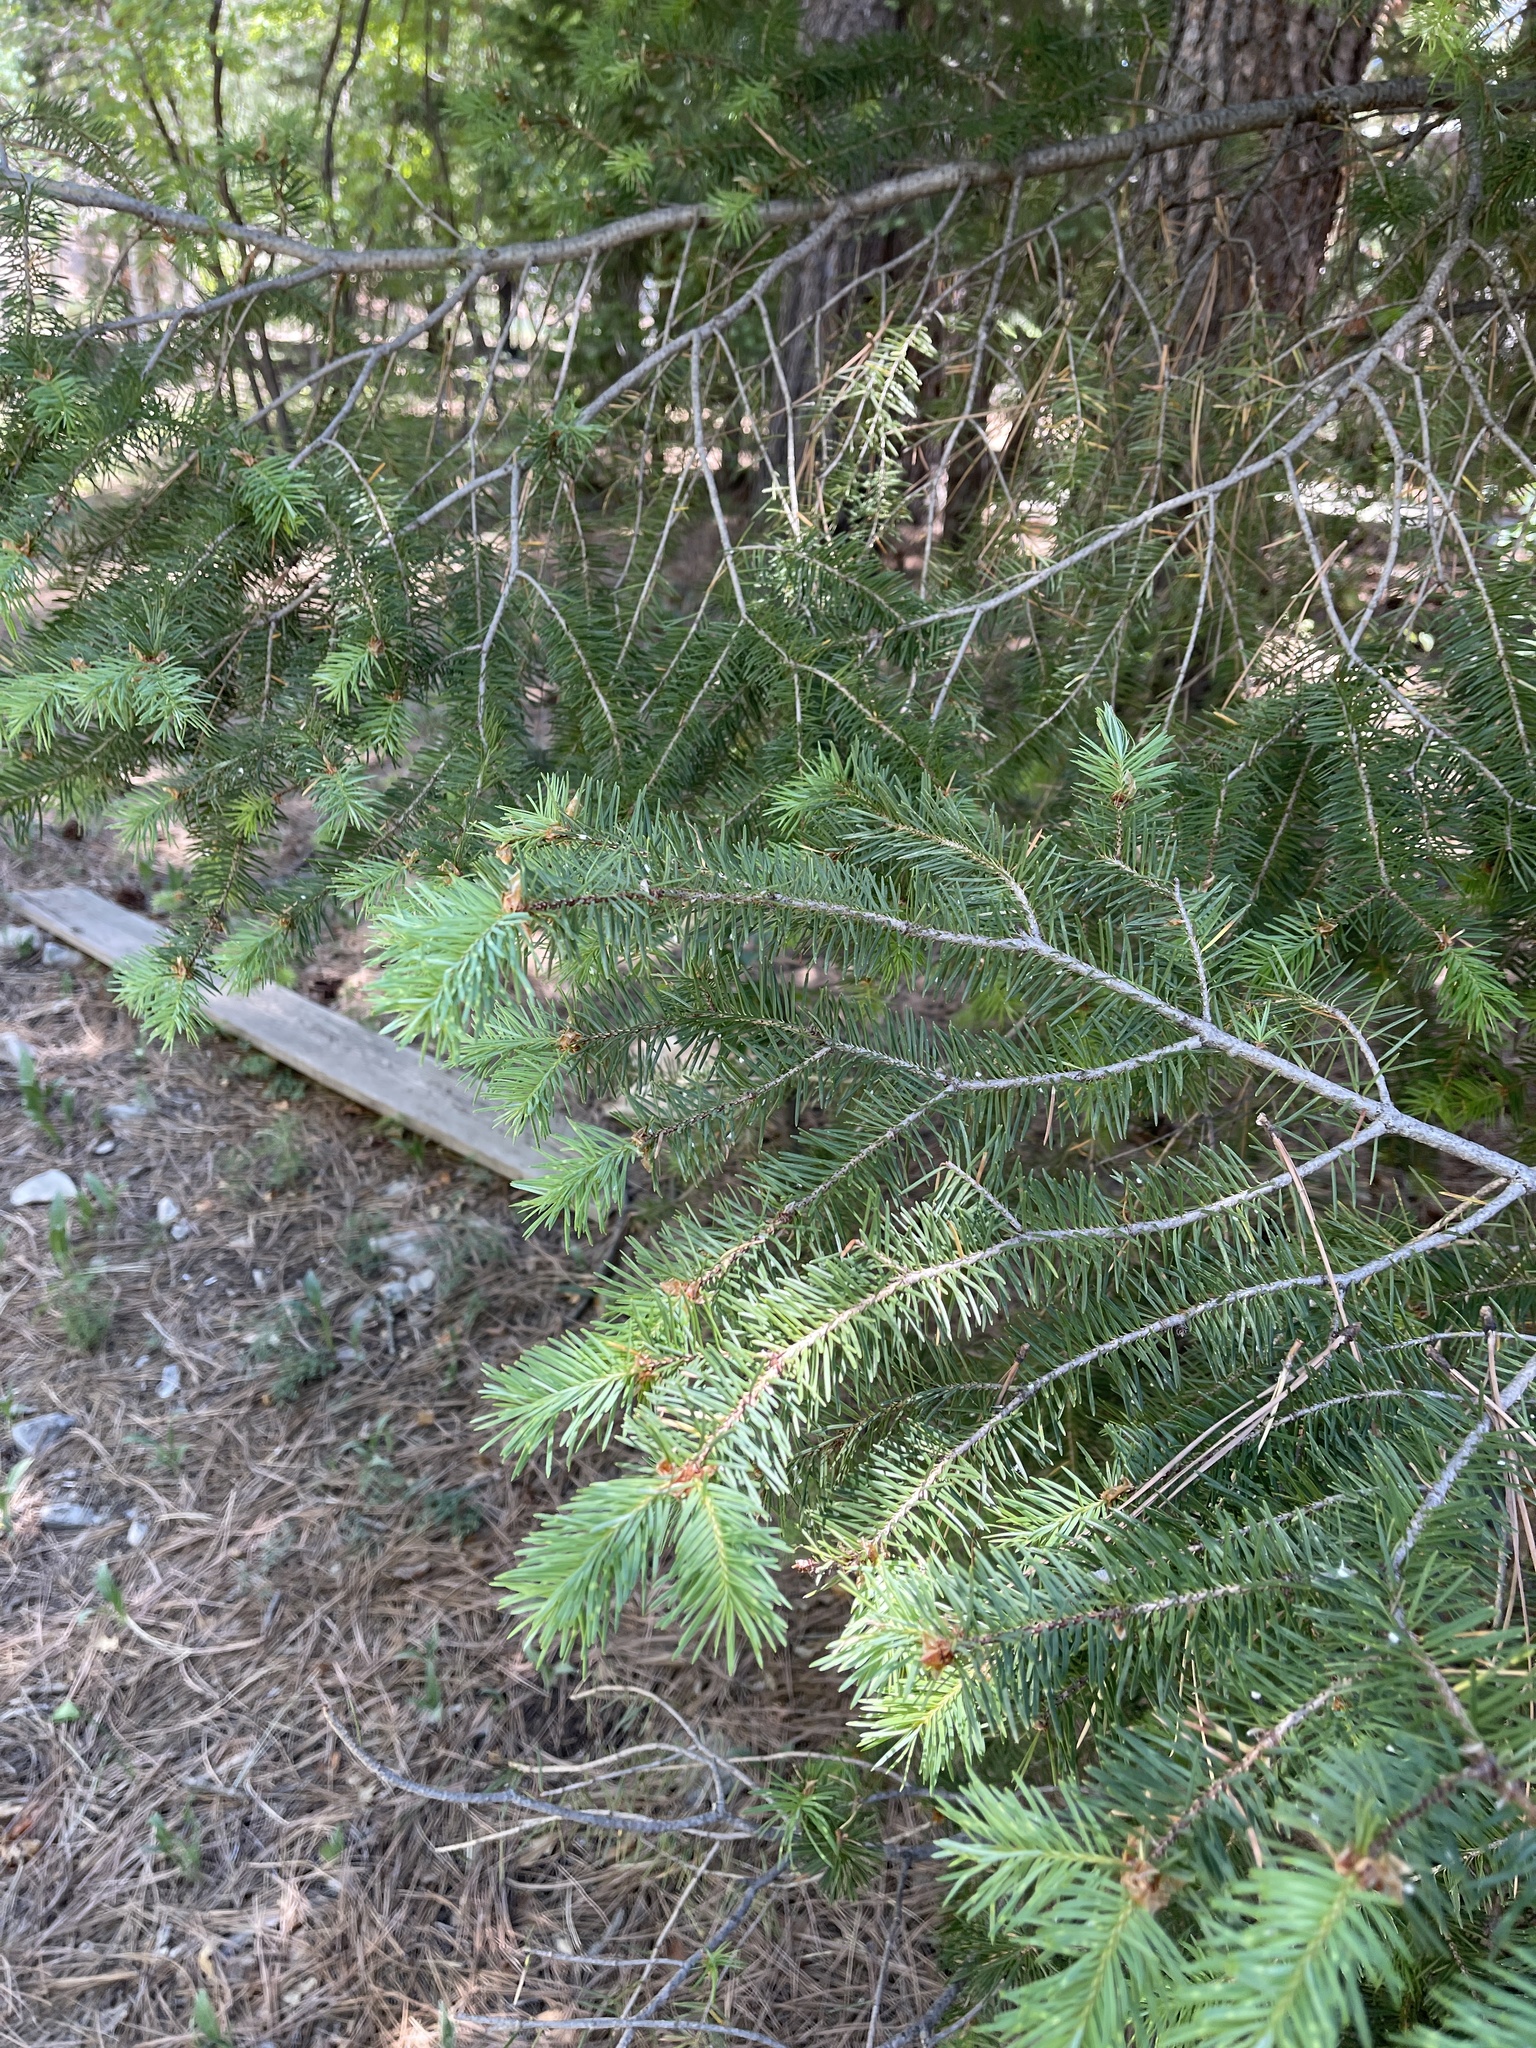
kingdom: Plantae
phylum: Tracheophyta
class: Pinopsida
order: Pinales
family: Pinaceae
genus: Pseudotsuga
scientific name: Pseudotsuga menziesii
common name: Douglas fir
